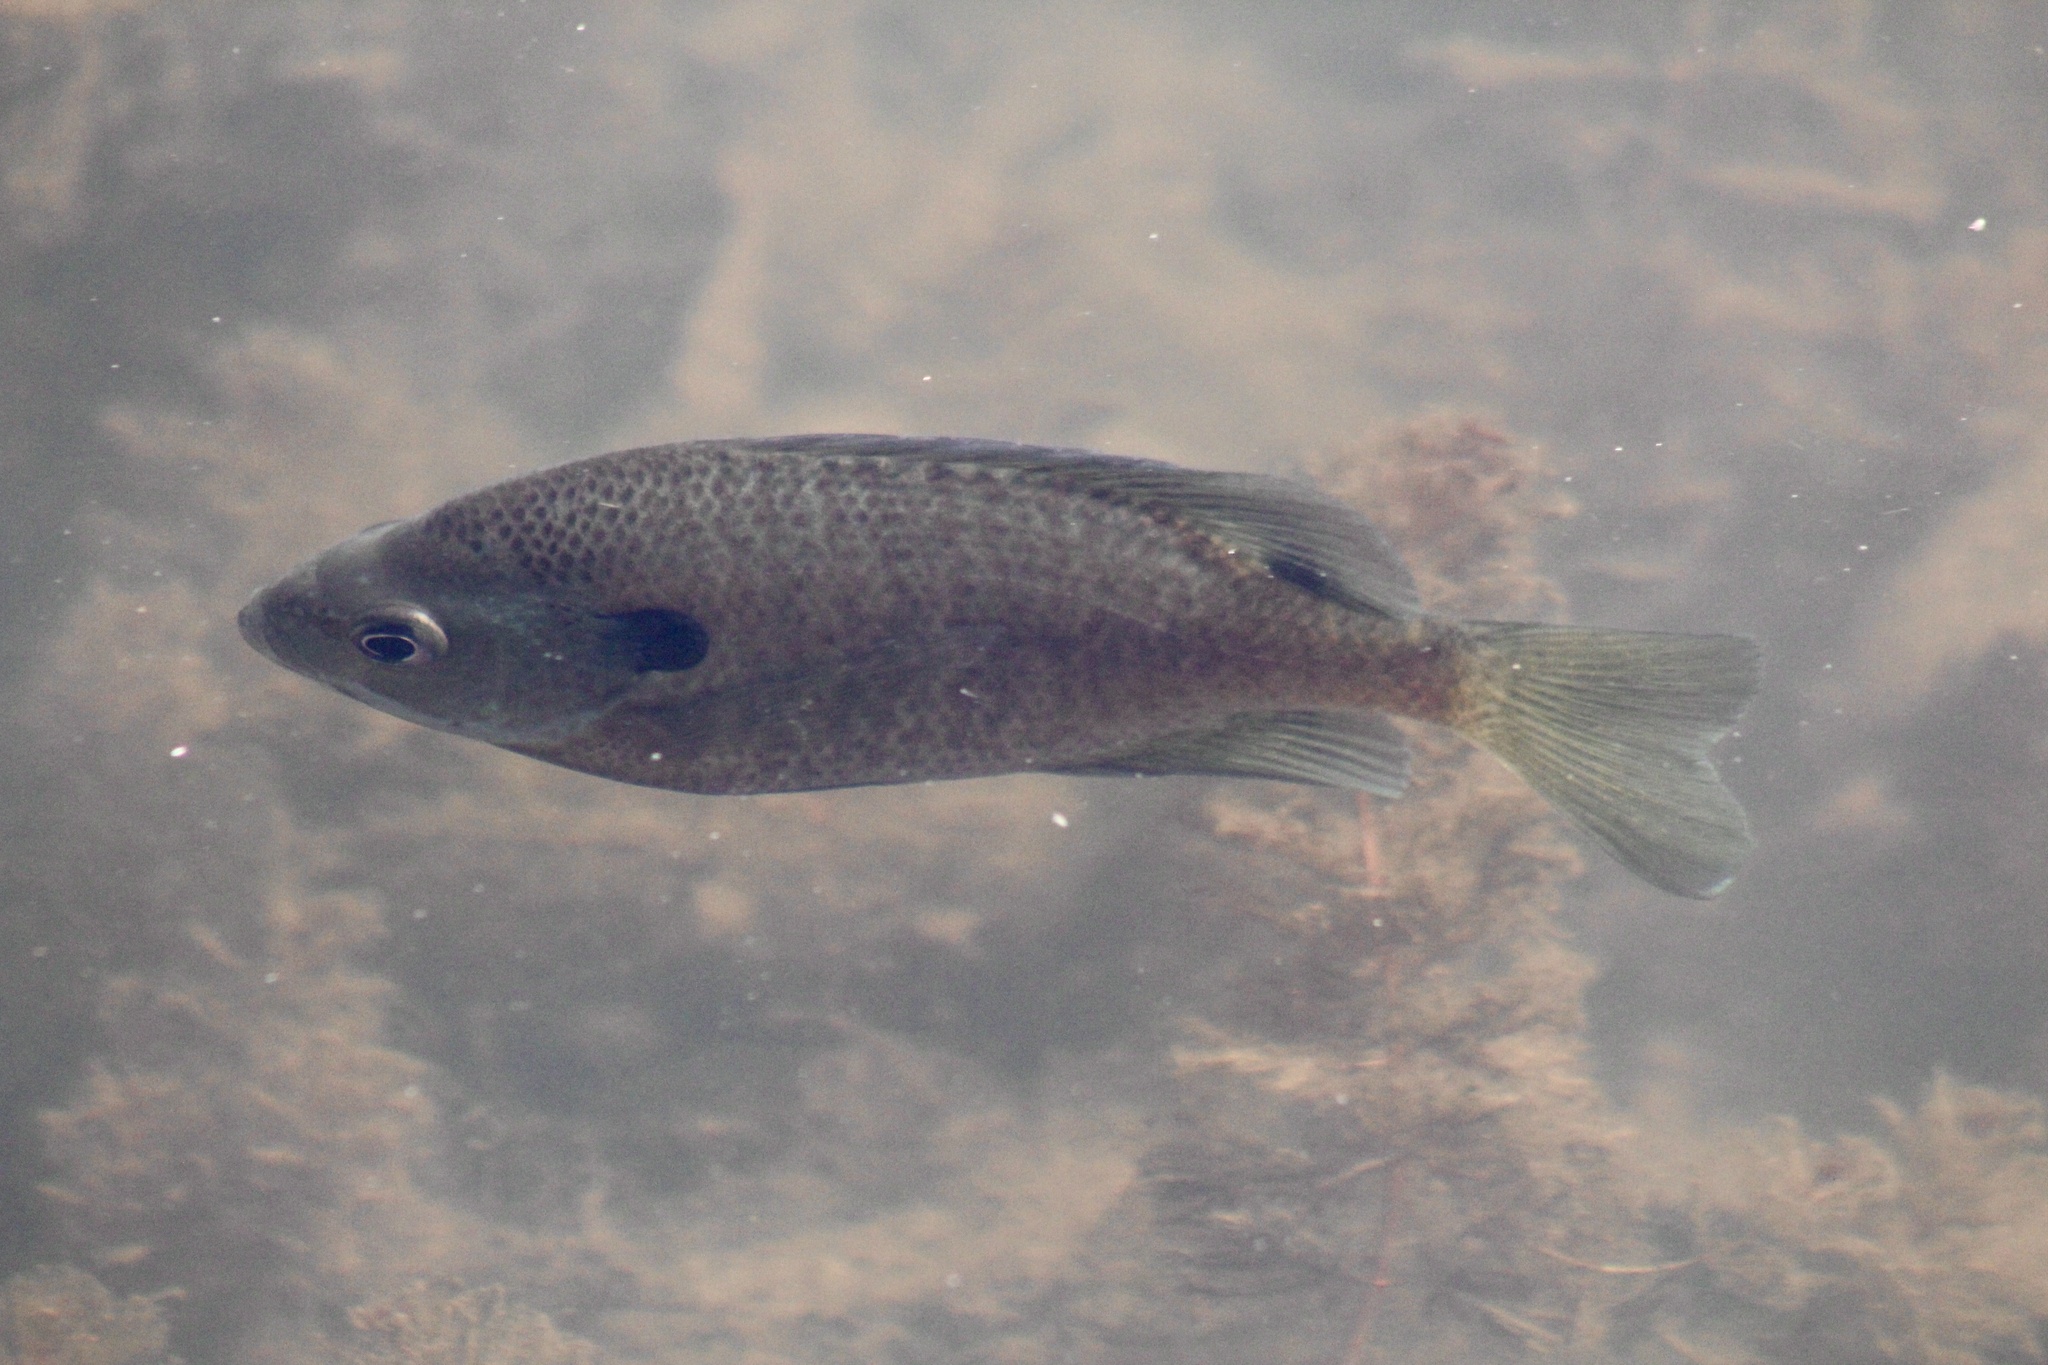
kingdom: Animalia
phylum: Chordata
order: Perciformes
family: Centrarchidae
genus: Lepomis
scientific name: Lepomis macrochirus
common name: Bluegill
